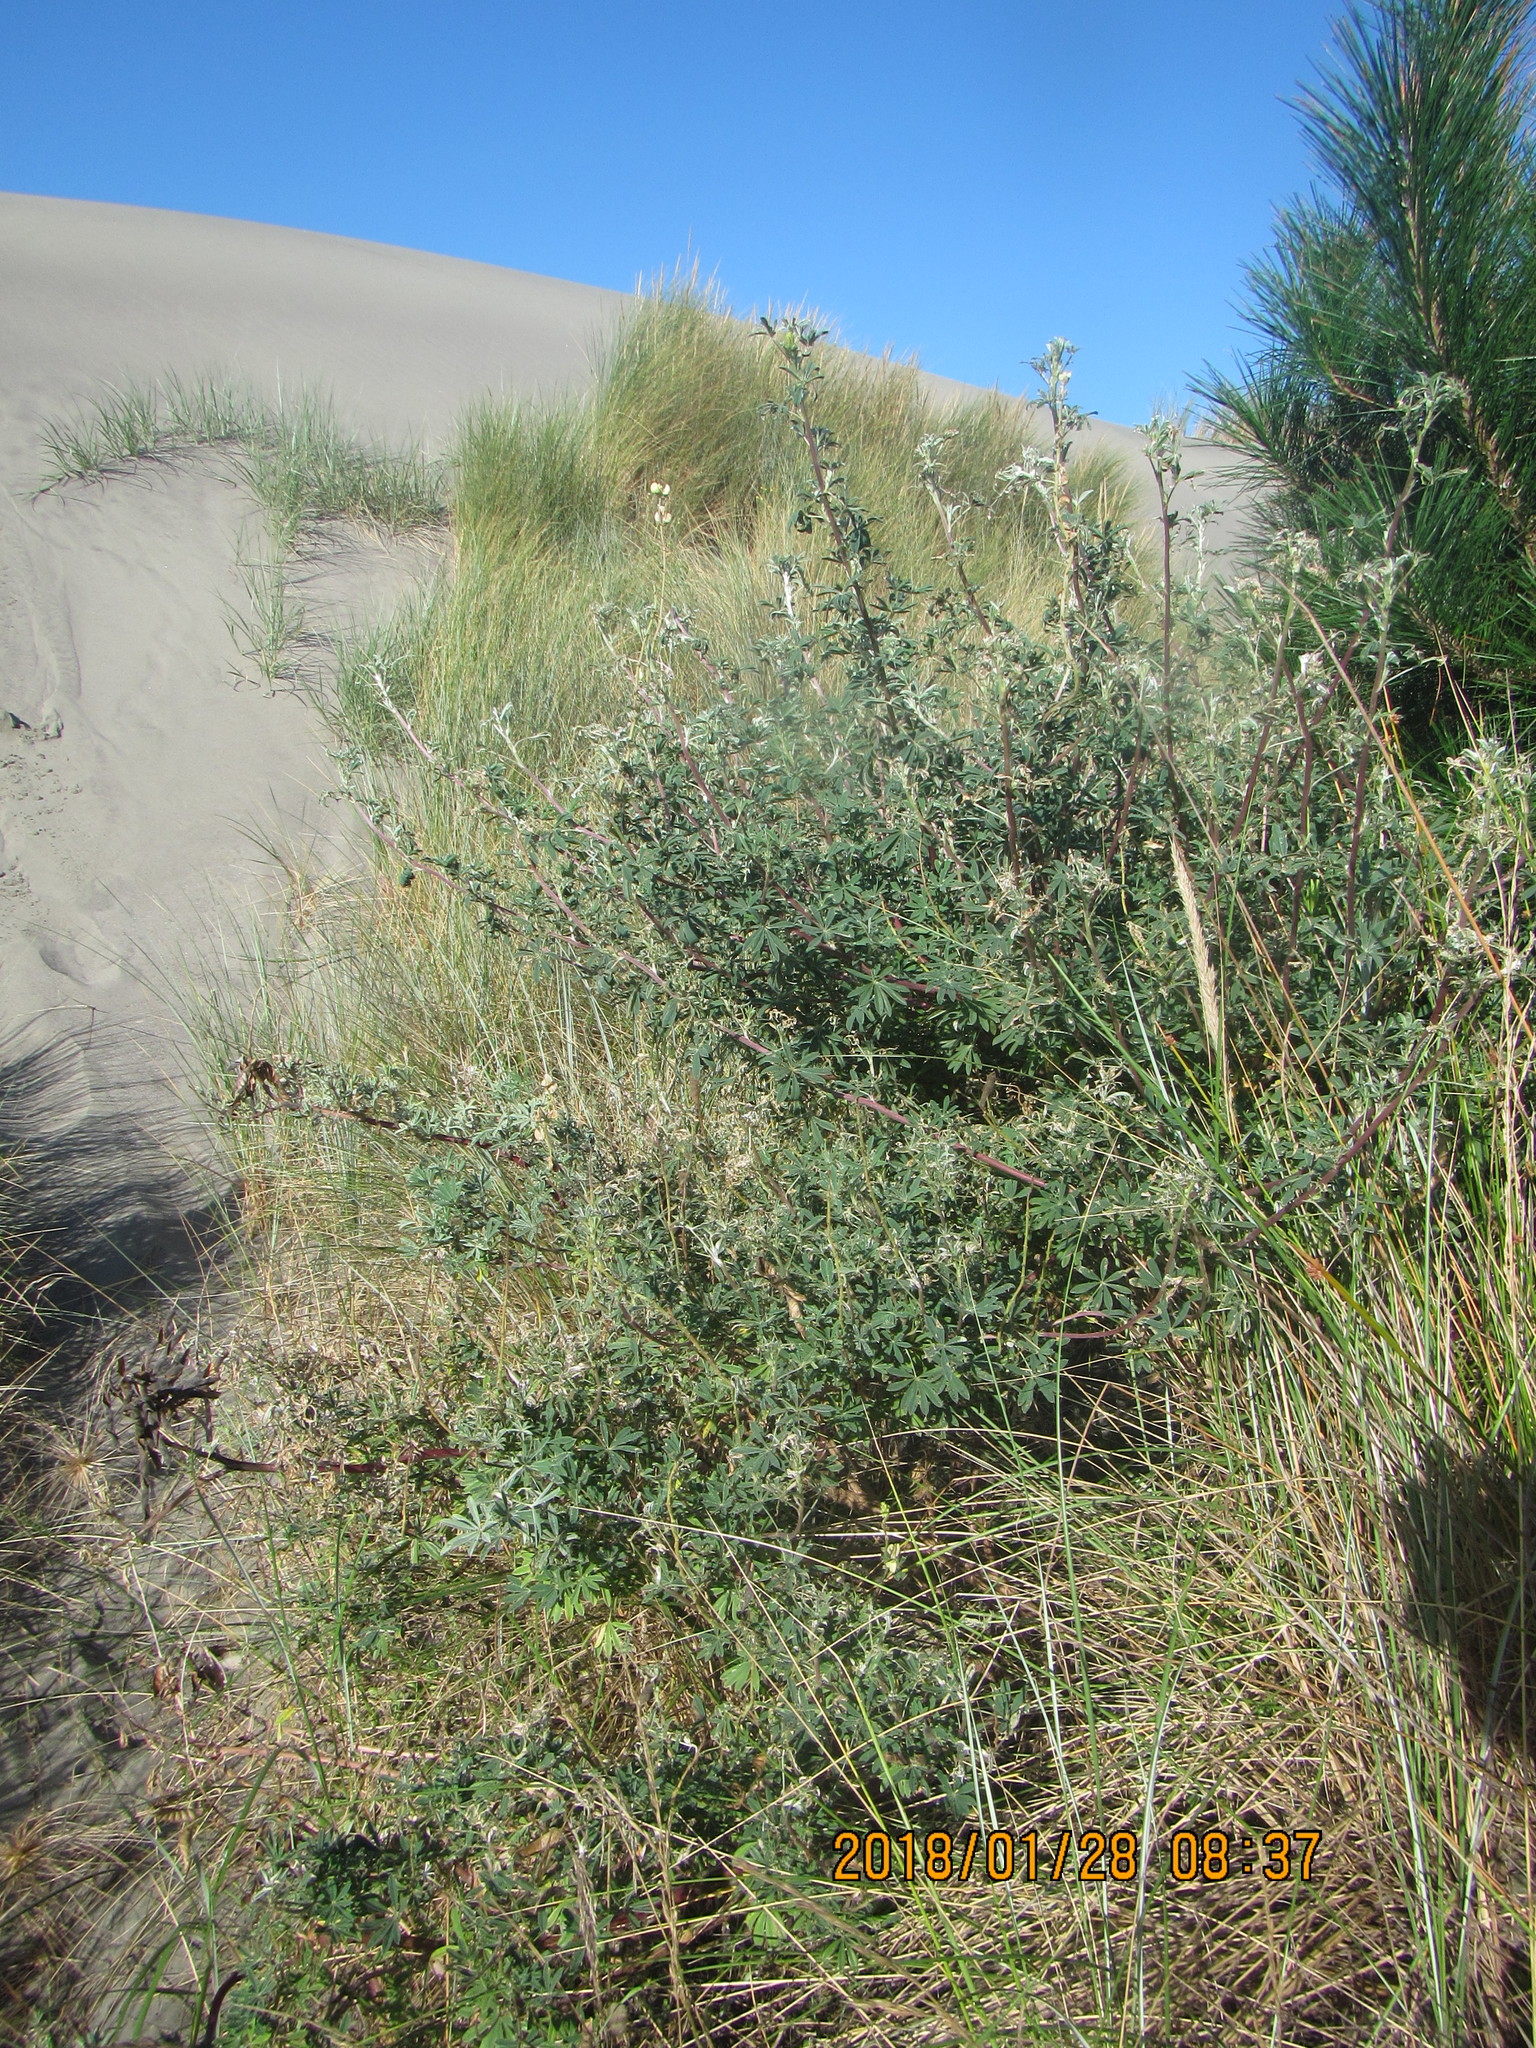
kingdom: Plantae
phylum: Tracheophyta
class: Magnoliopsida
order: Fabales
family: Fabaceae
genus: Lupinus
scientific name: Lupinus arboreus
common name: Yellow bush lupine
